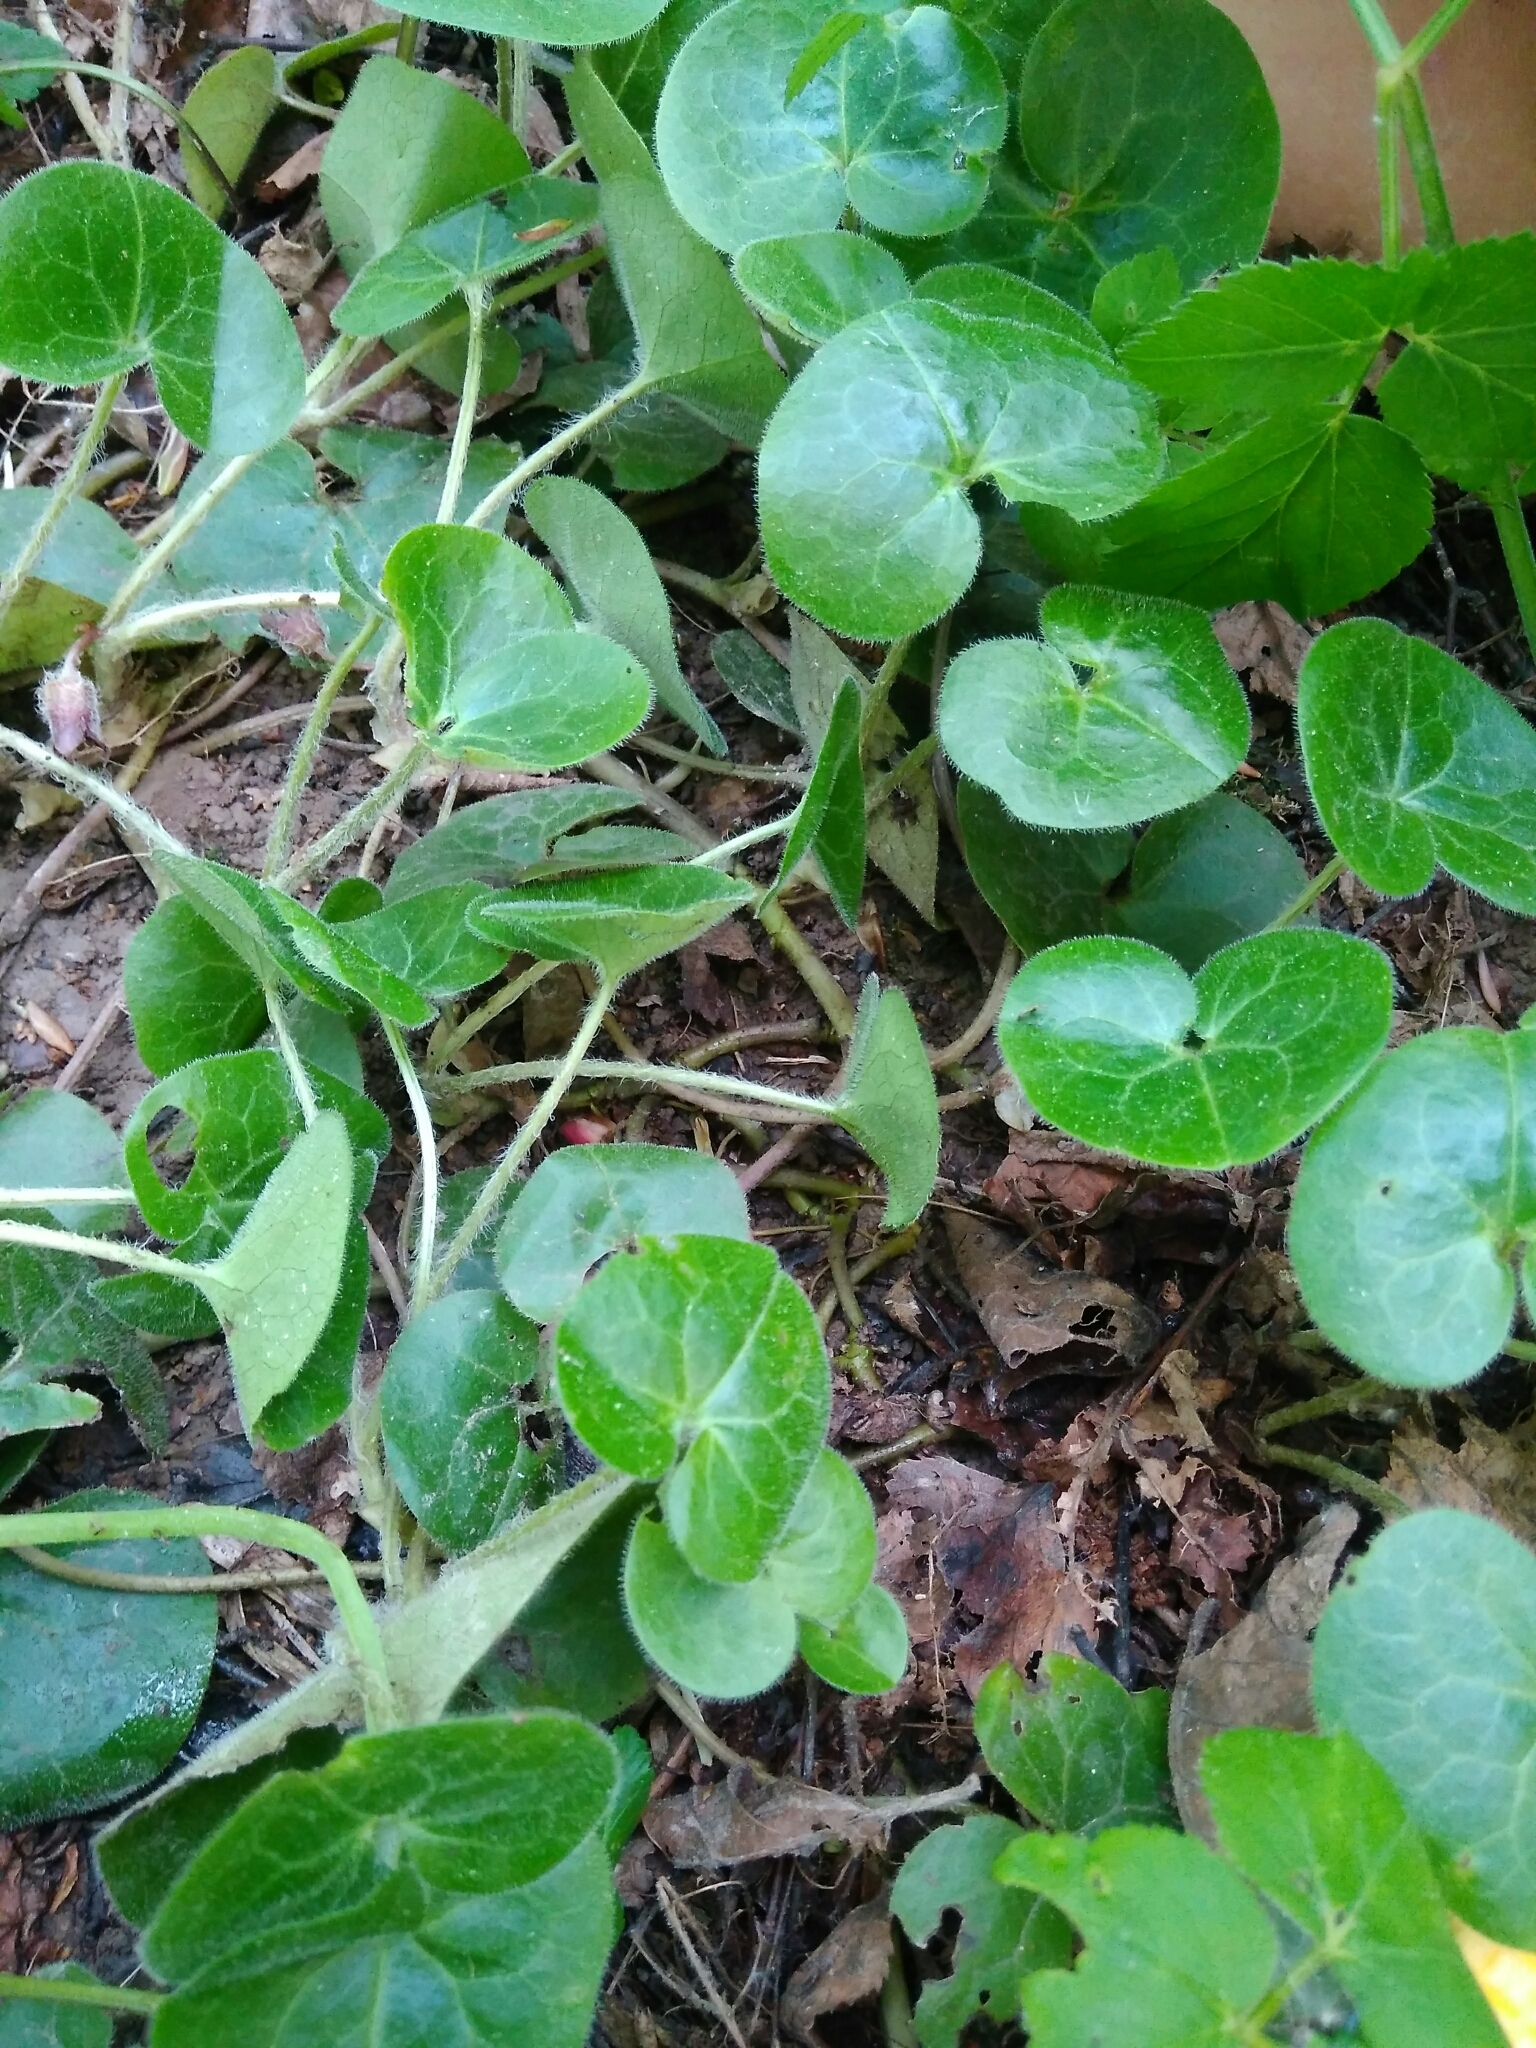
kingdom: Plantae
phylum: Tracheophyta
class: Magnoliopsida
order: Piperales
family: Aristolochiaceae
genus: Asarum
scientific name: Asarum europaeum
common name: Asarabacca
